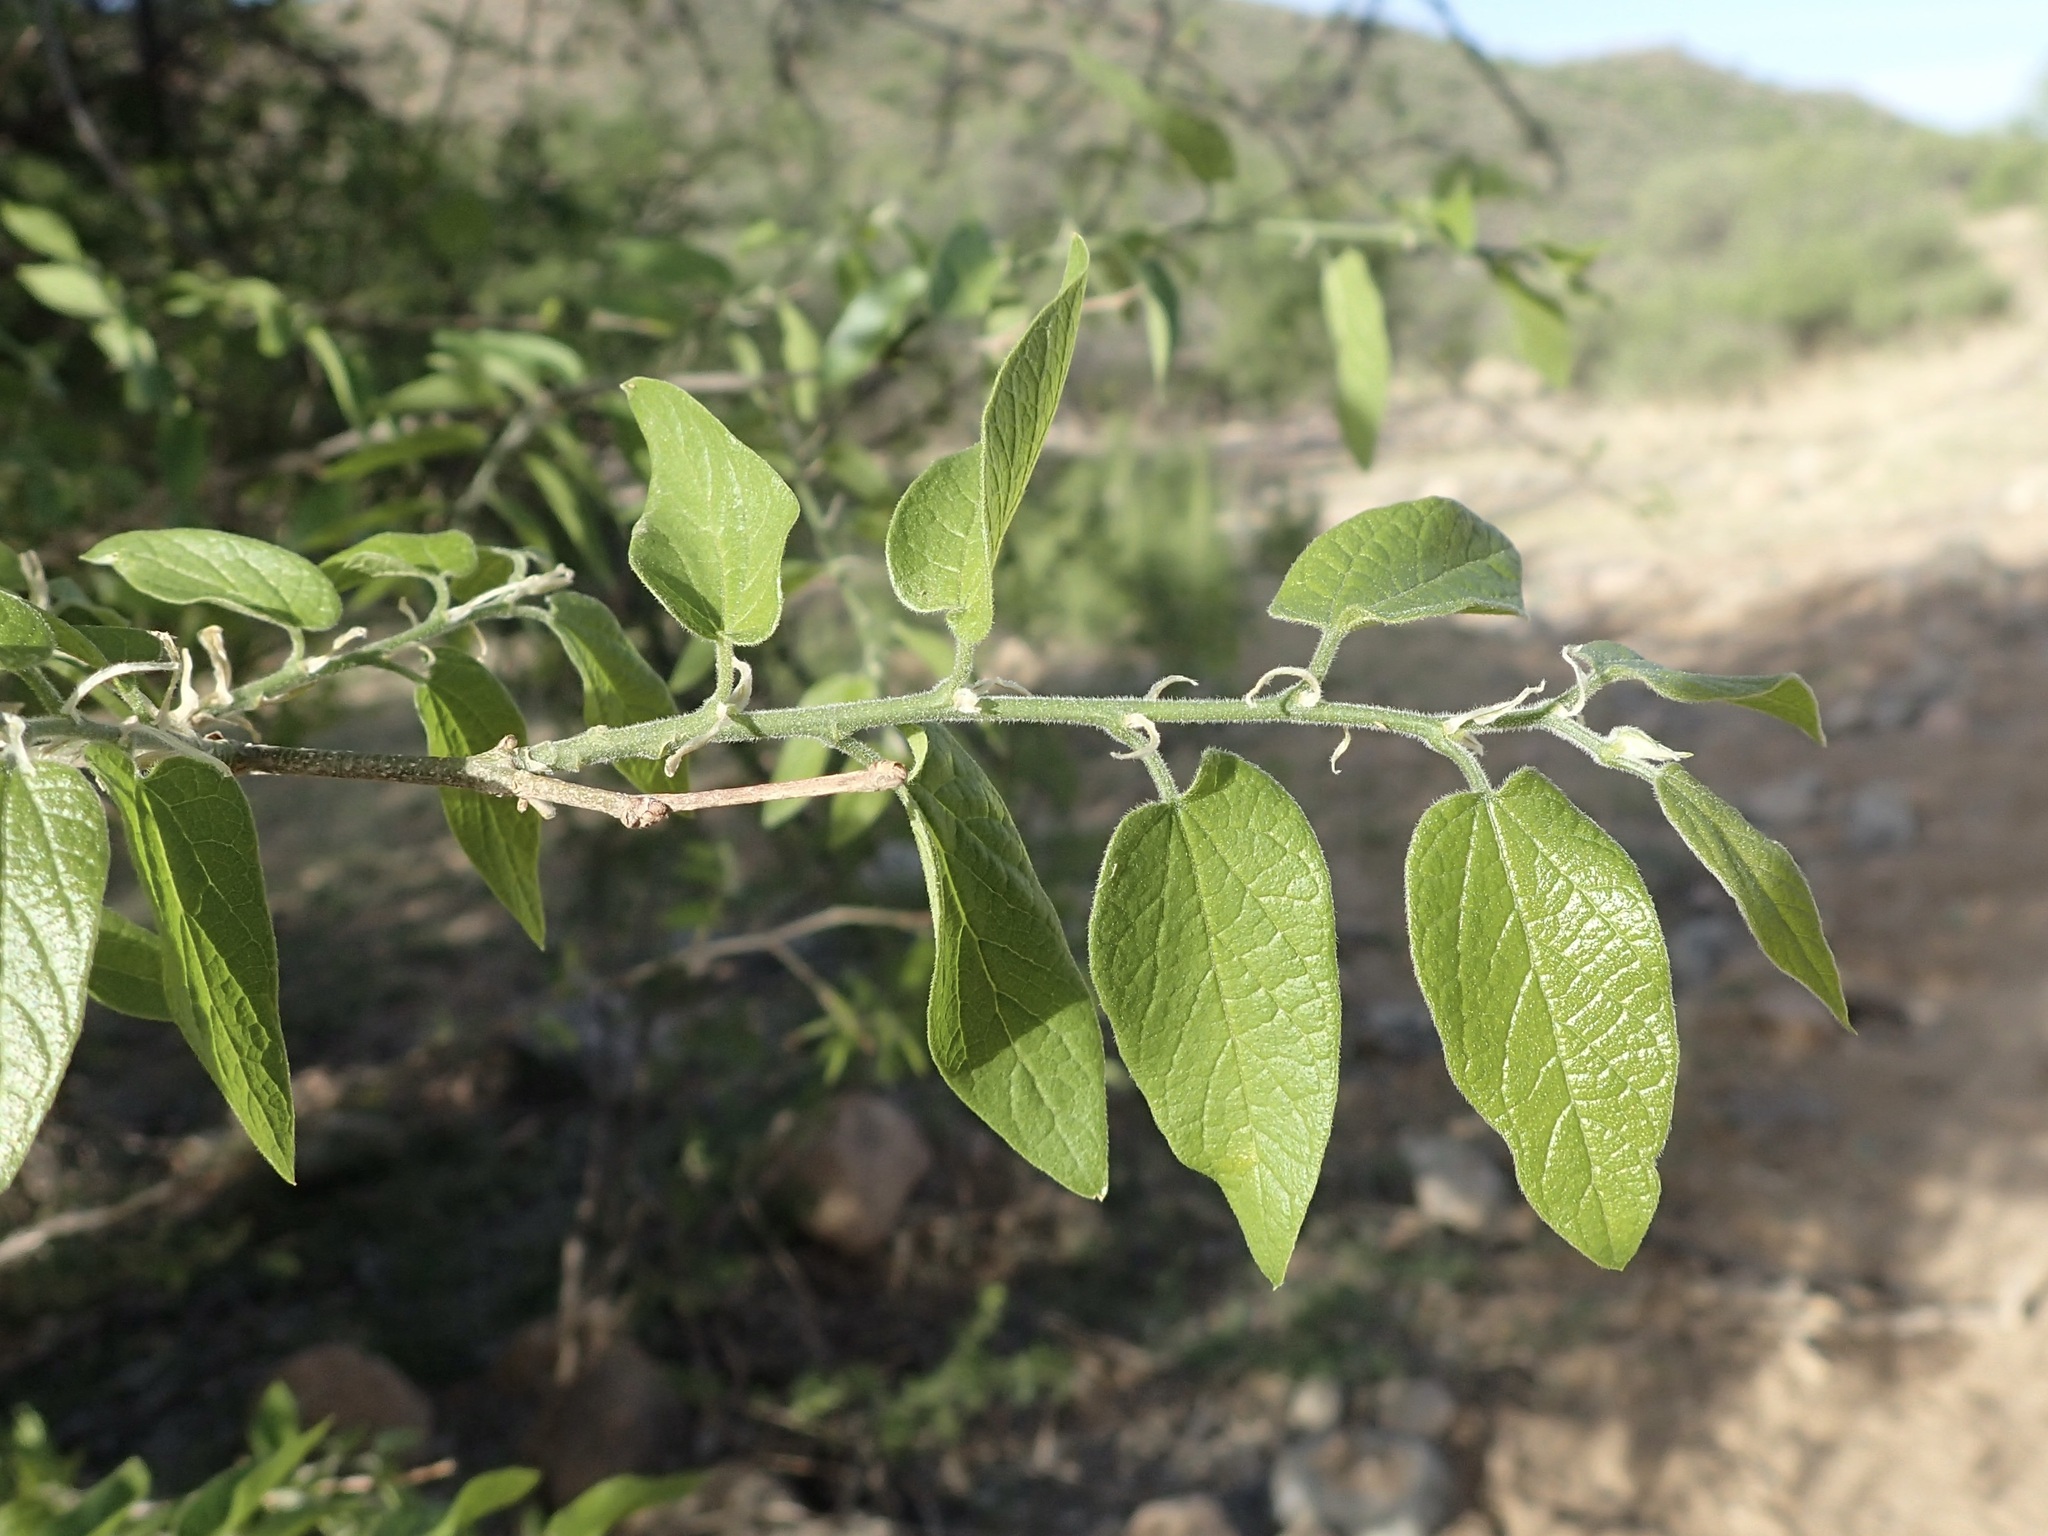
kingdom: Plantae
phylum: Tracheophyta
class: Magnoliopsida
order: Rosales
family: Cannabaceae
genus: Celtis
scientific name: Celtis reticulata
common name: Netleaf hackberry
